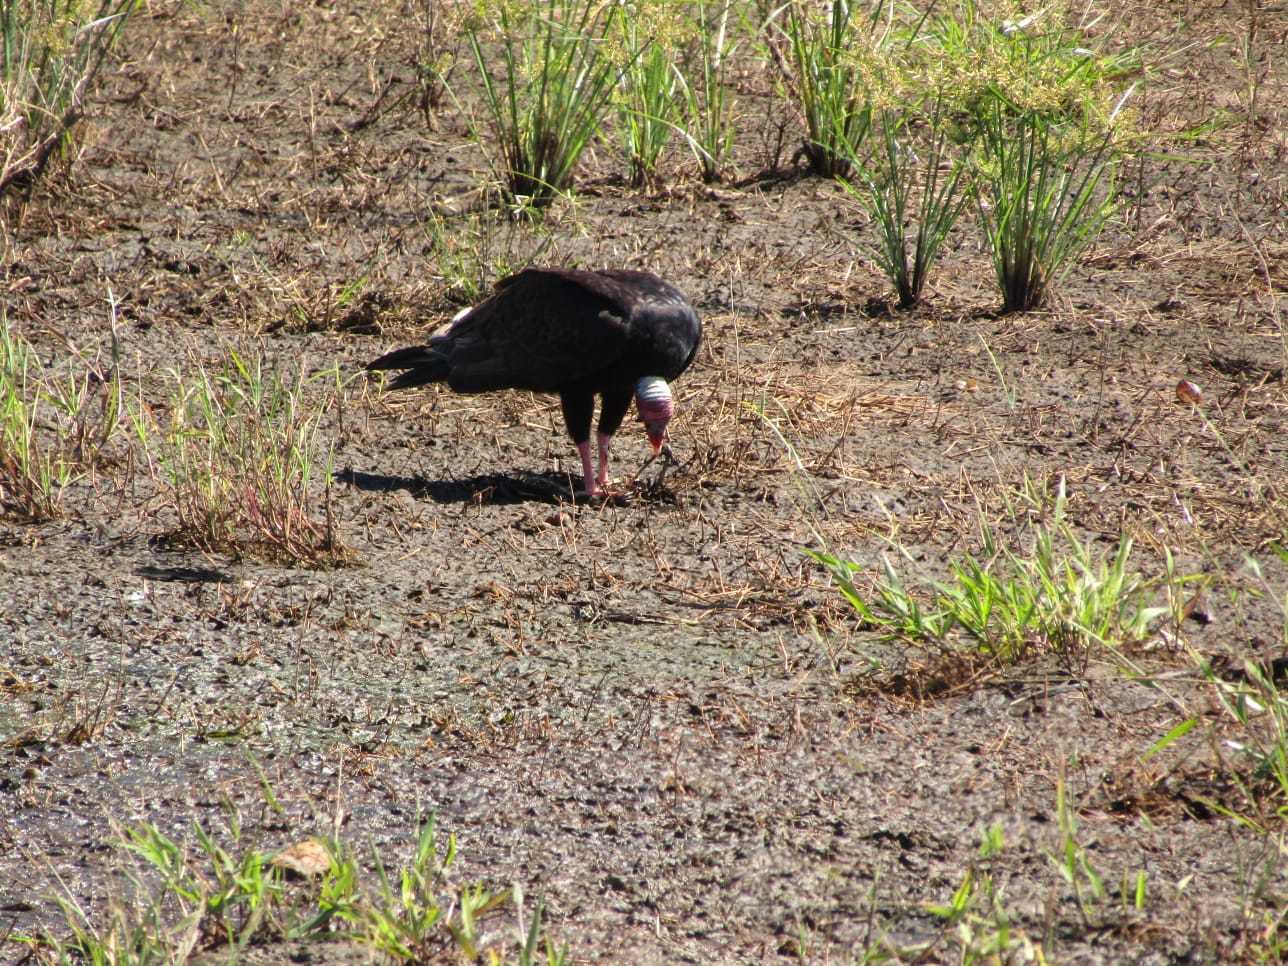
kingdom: Animalia
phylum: Chordata
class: Aves
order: Accipitriformes
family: Cathartidae
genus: Cathartes
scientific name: Cathartes aura
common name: Turkey vulture
